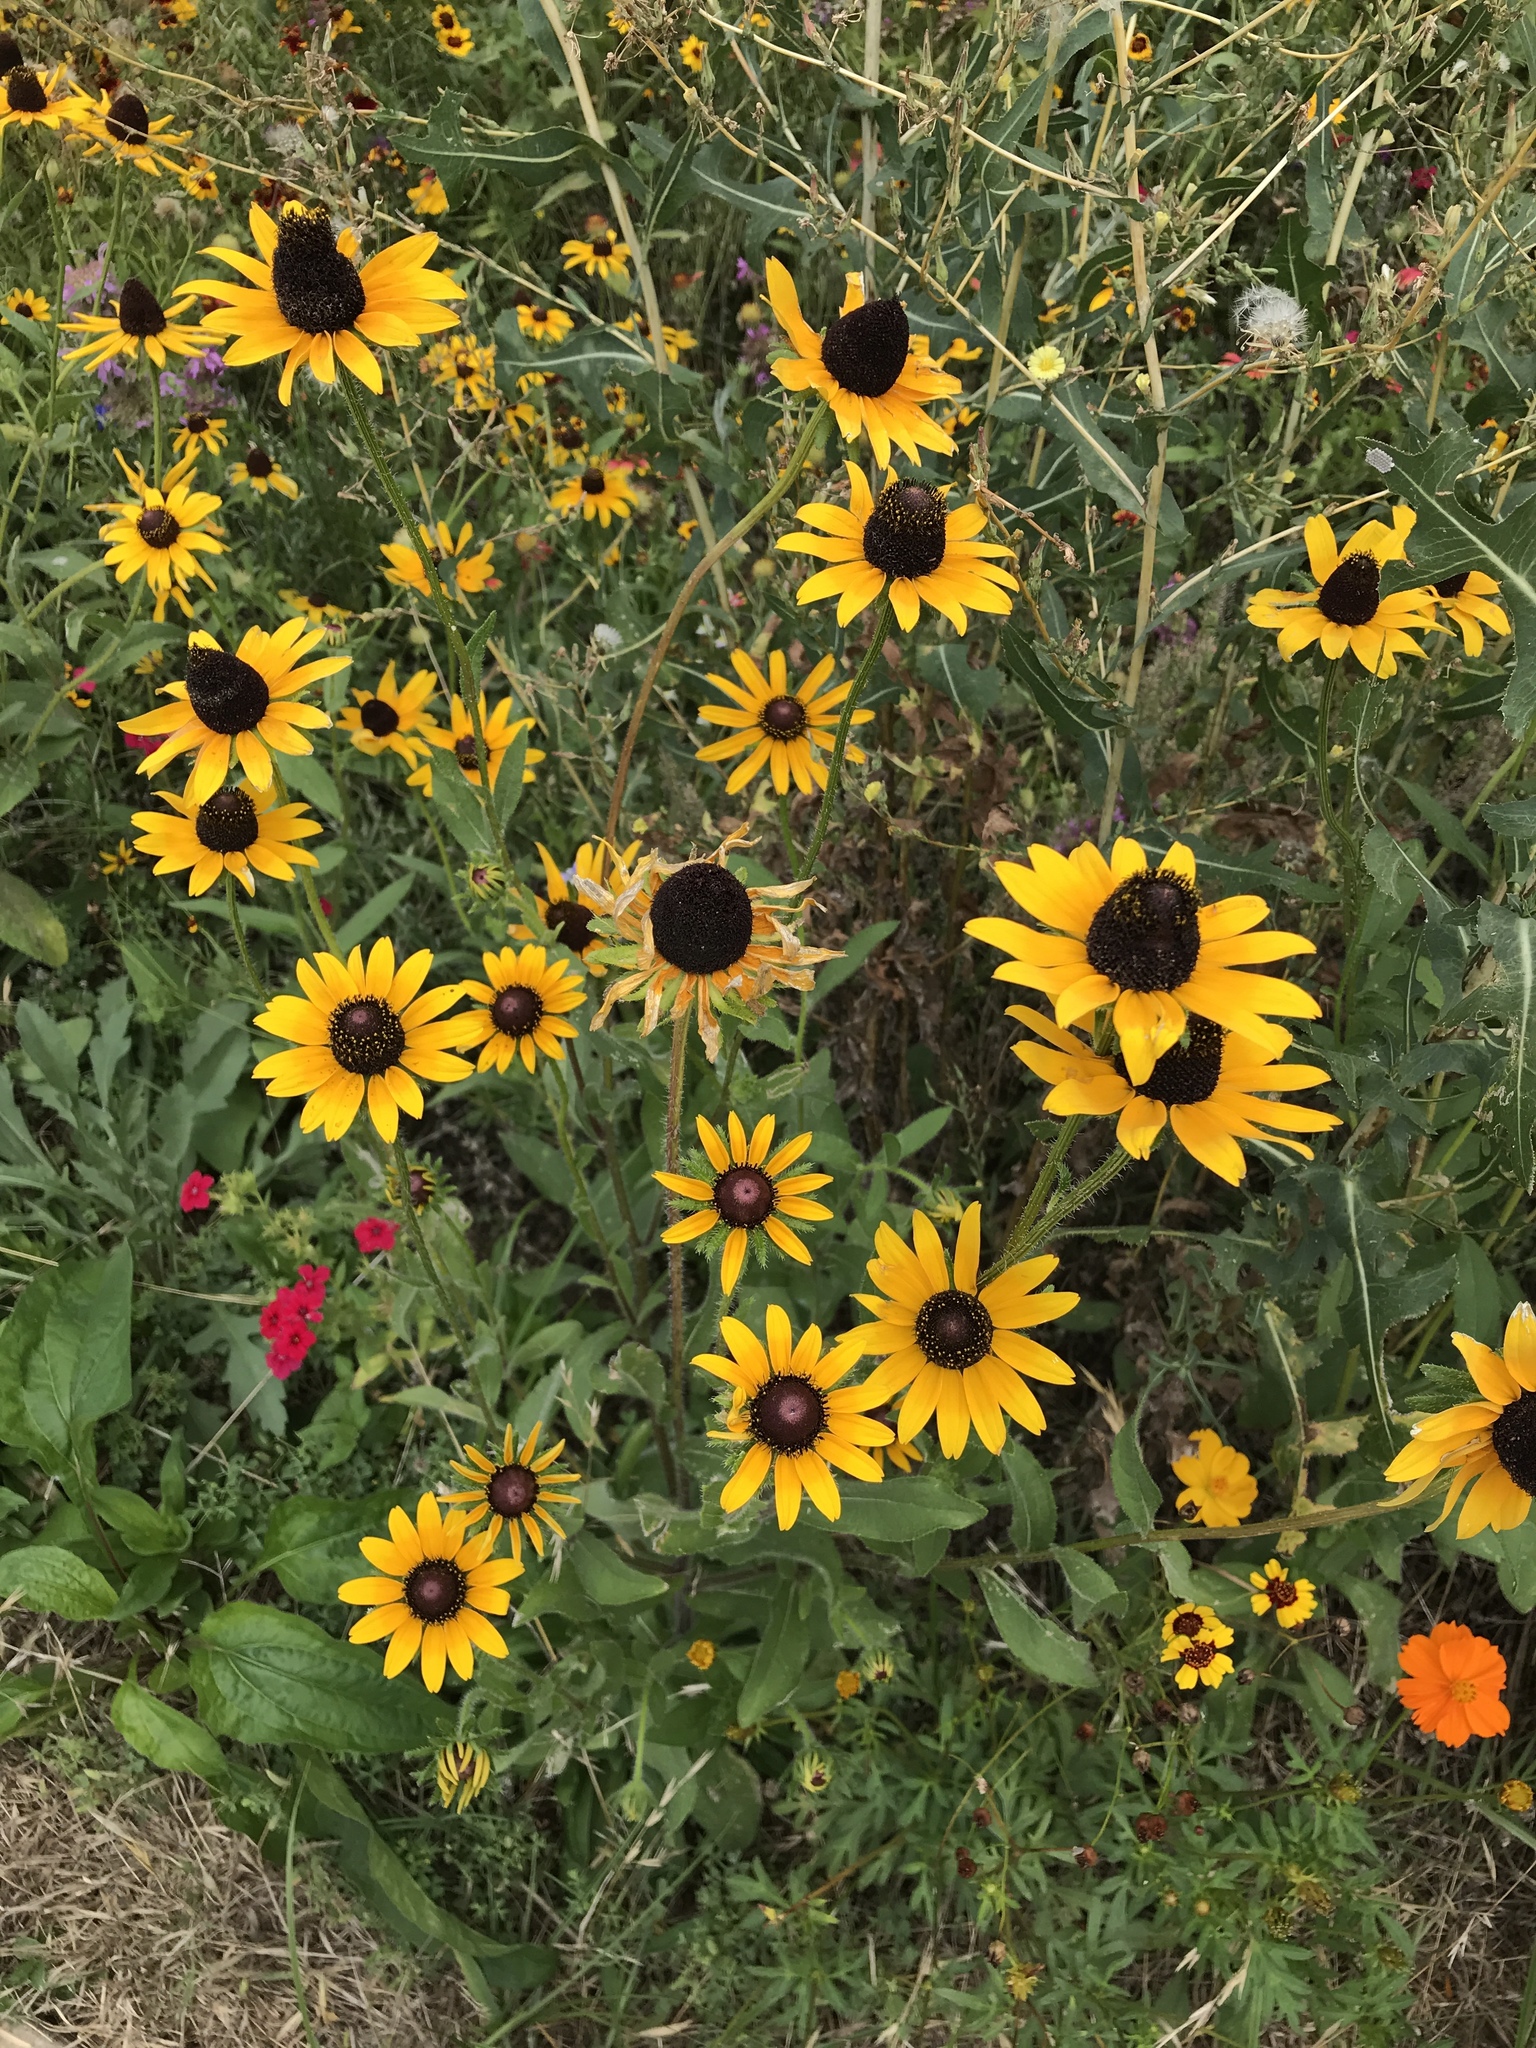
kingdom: Plantae
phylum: Tracheophyta
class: Magnoliopsida
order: Asterales
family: Asteraceae
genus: Rudbeckia
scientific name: Rudbeckia hirta
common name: Black-eyed-susan
